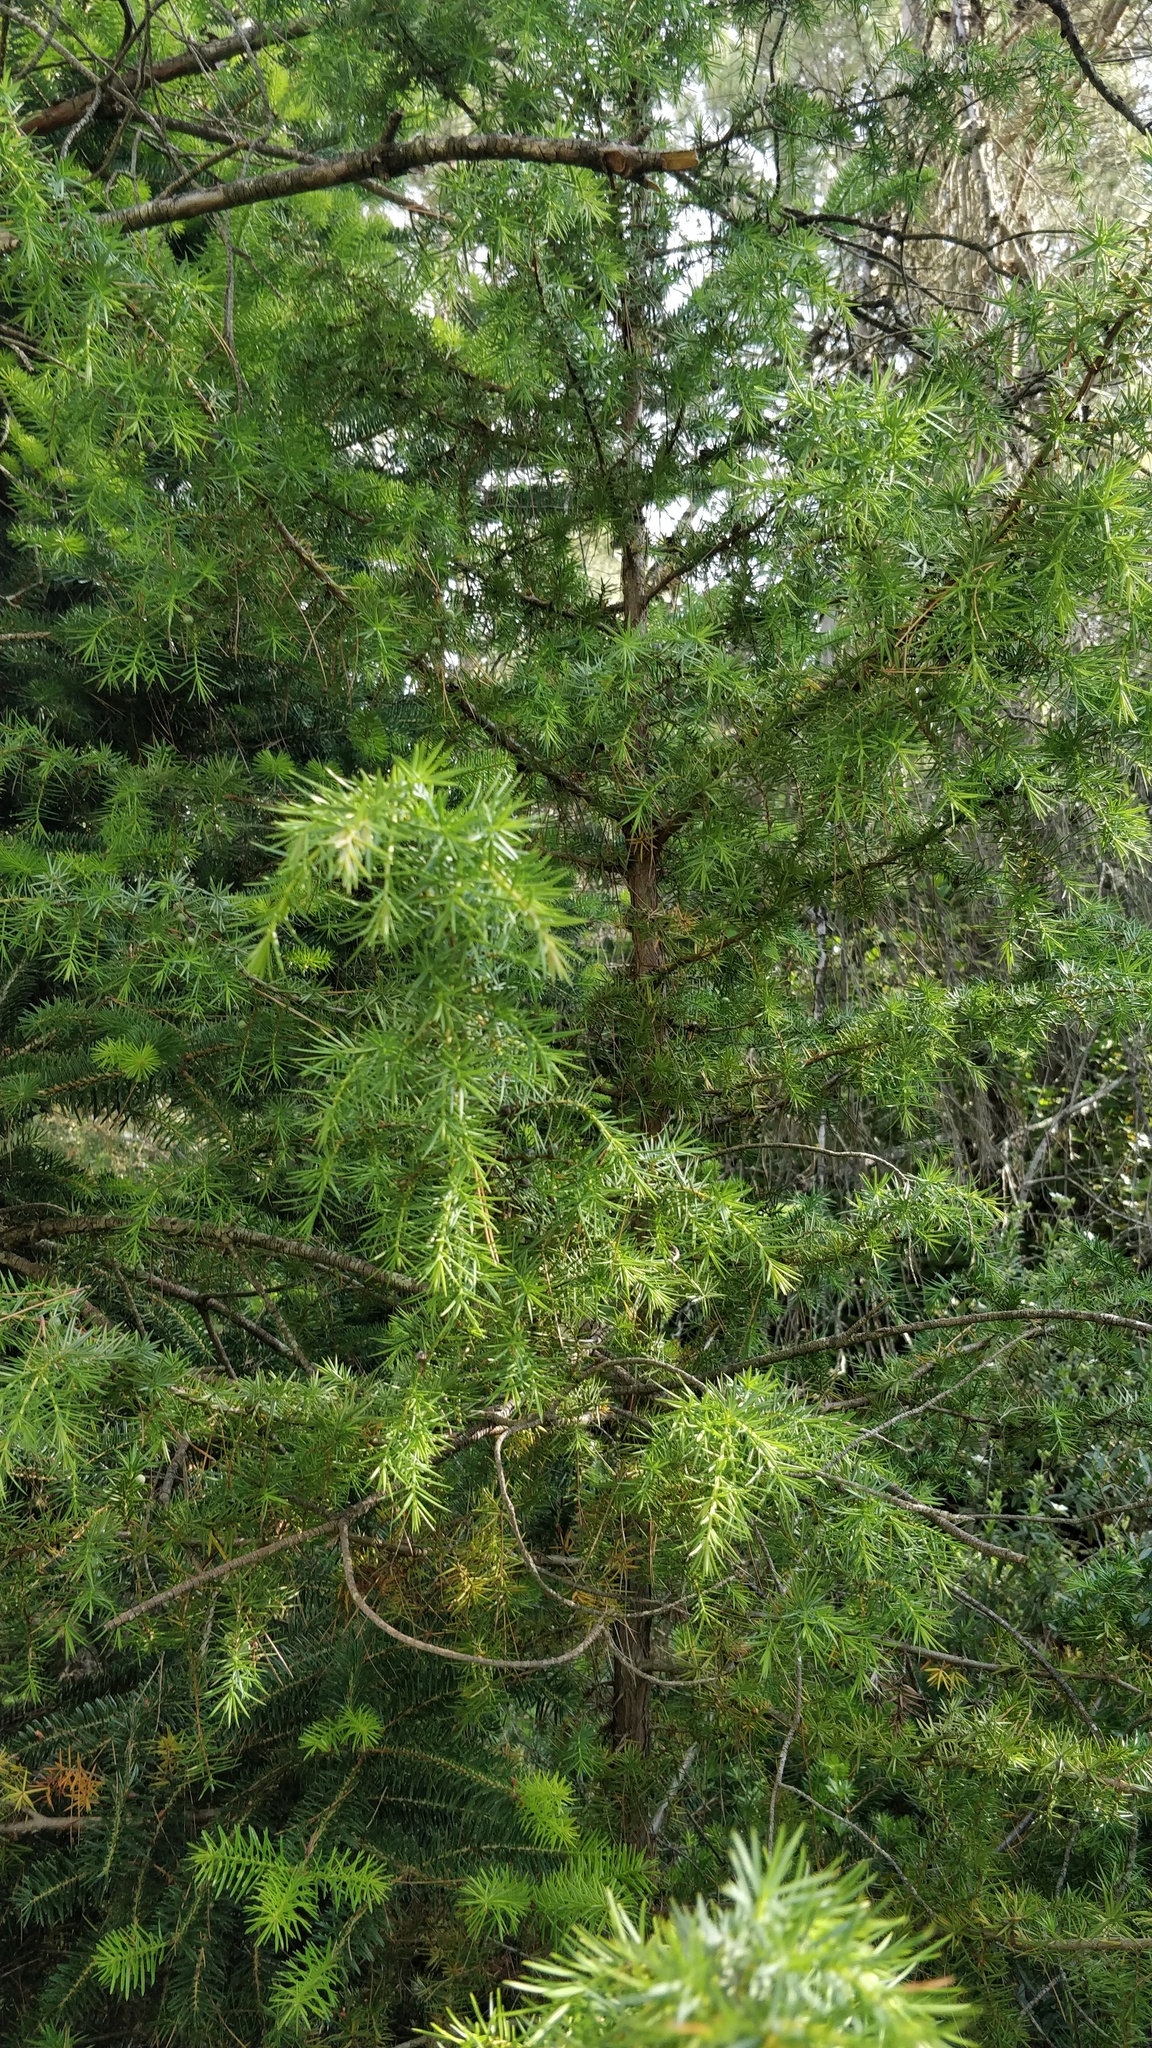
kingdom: Plantae
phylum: Tracheophyta
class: Pinopsida
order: Pinales
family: Cupressaceae
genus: Juniperus
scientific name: Juniperus communis
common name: Common juniper
